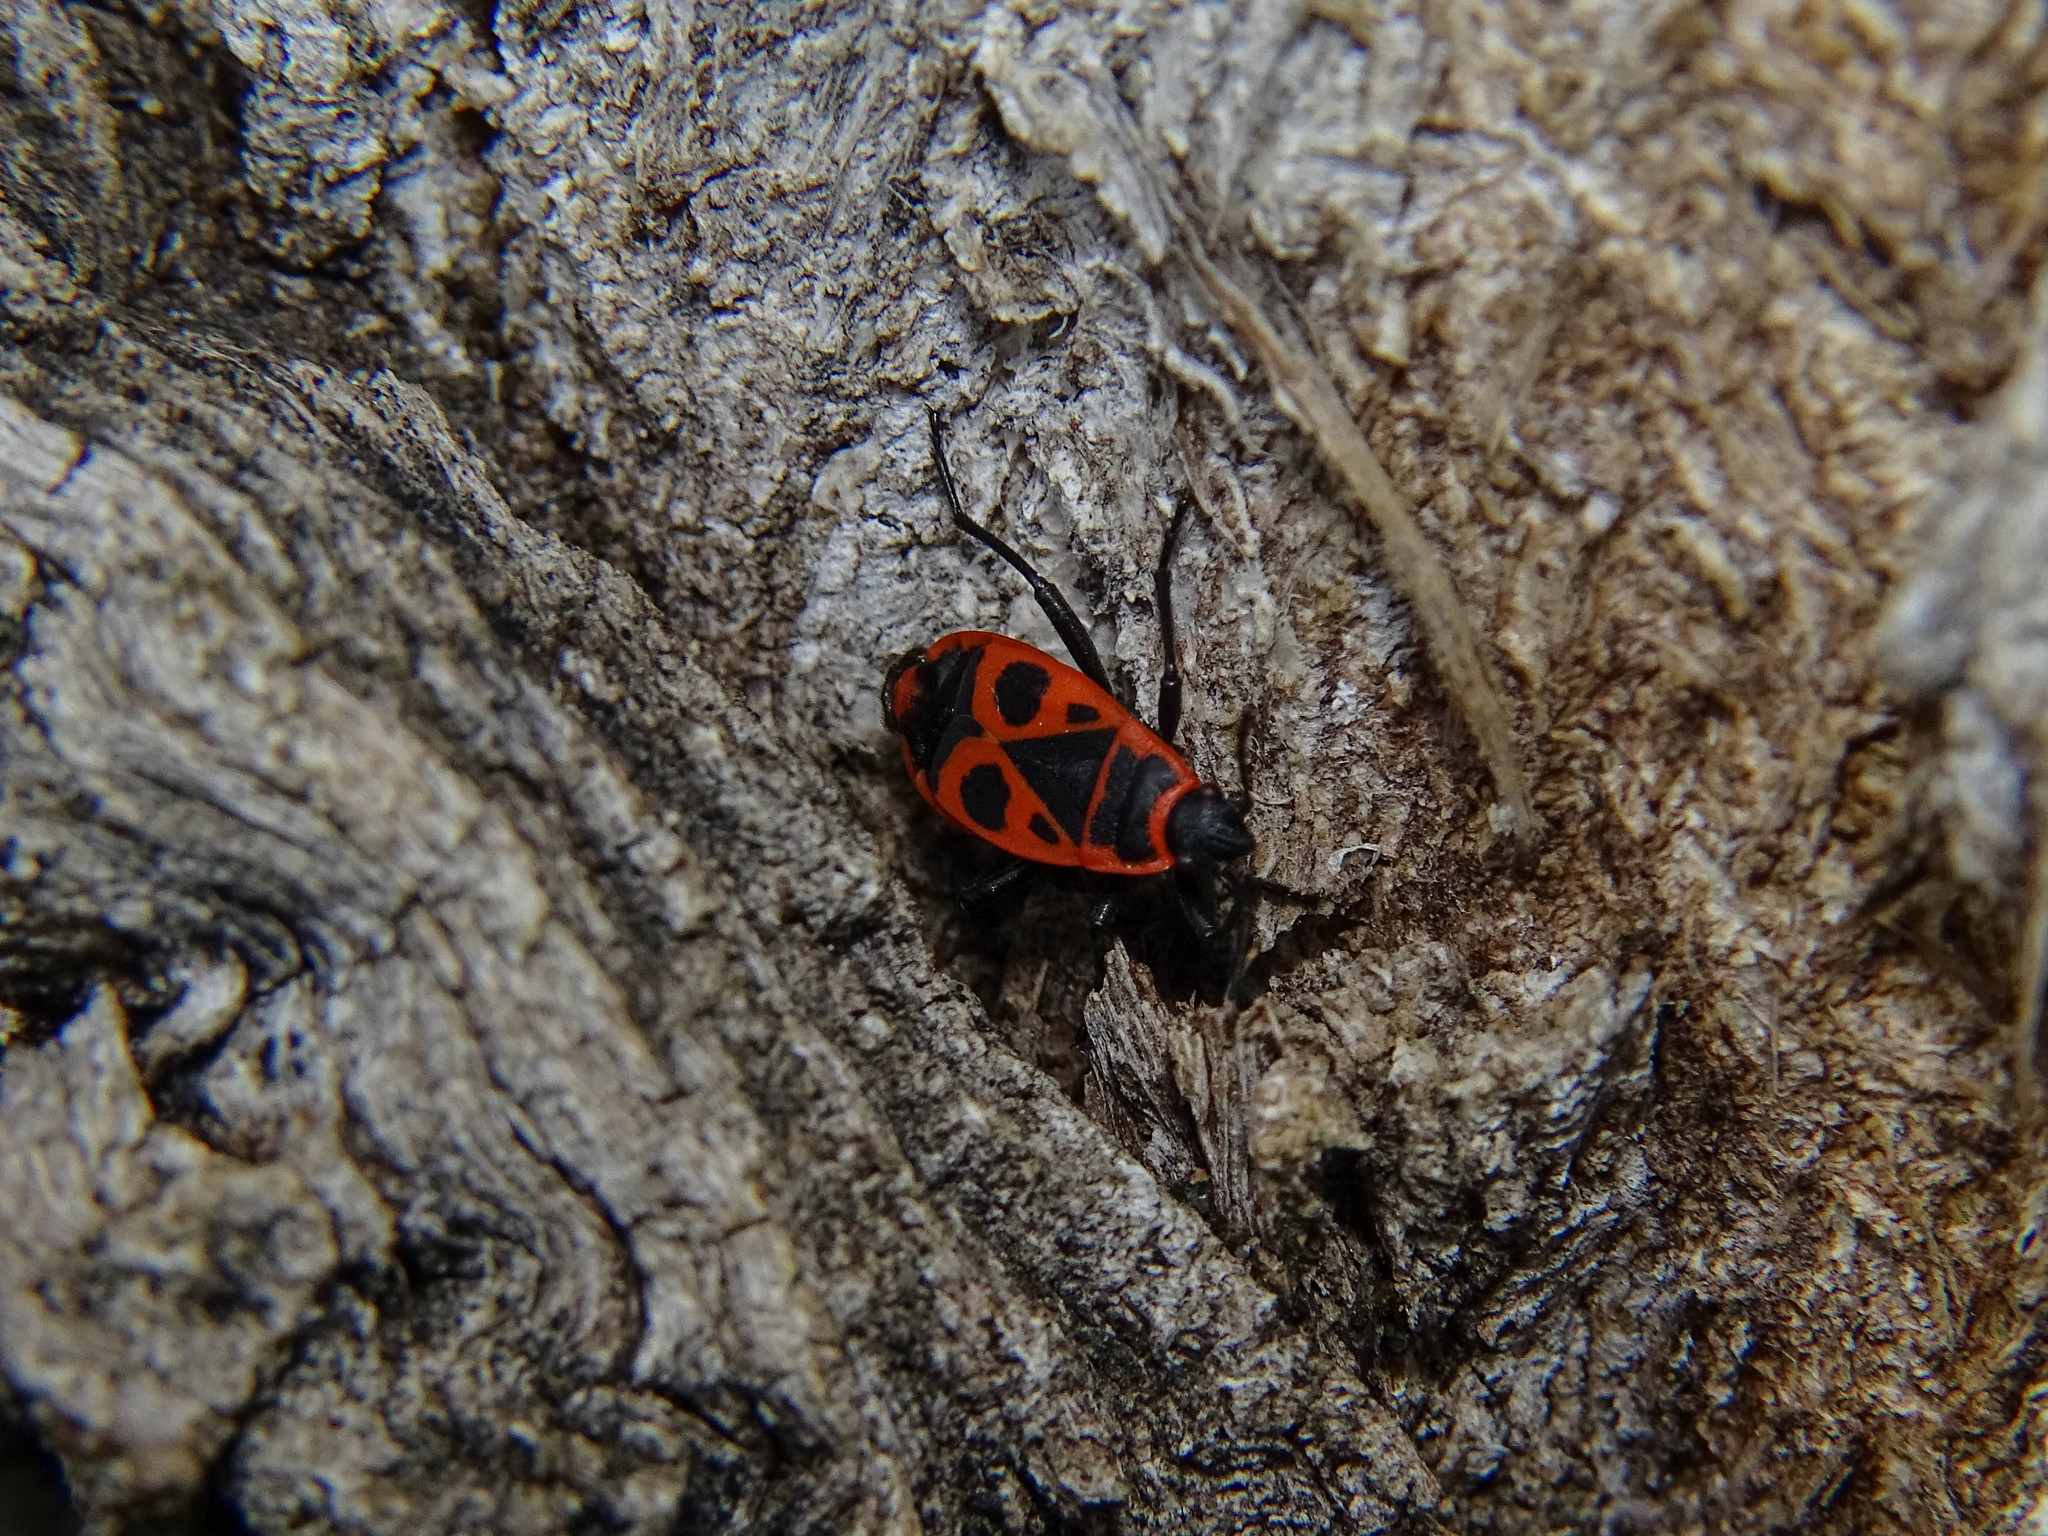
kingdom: Animalia
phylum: Arthropoda
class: Insecta
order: Hemiptera
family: Pyrrhocoridae
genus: Pyrrhocoris
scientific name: Pyrrhocoris apterus
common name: Firebug
